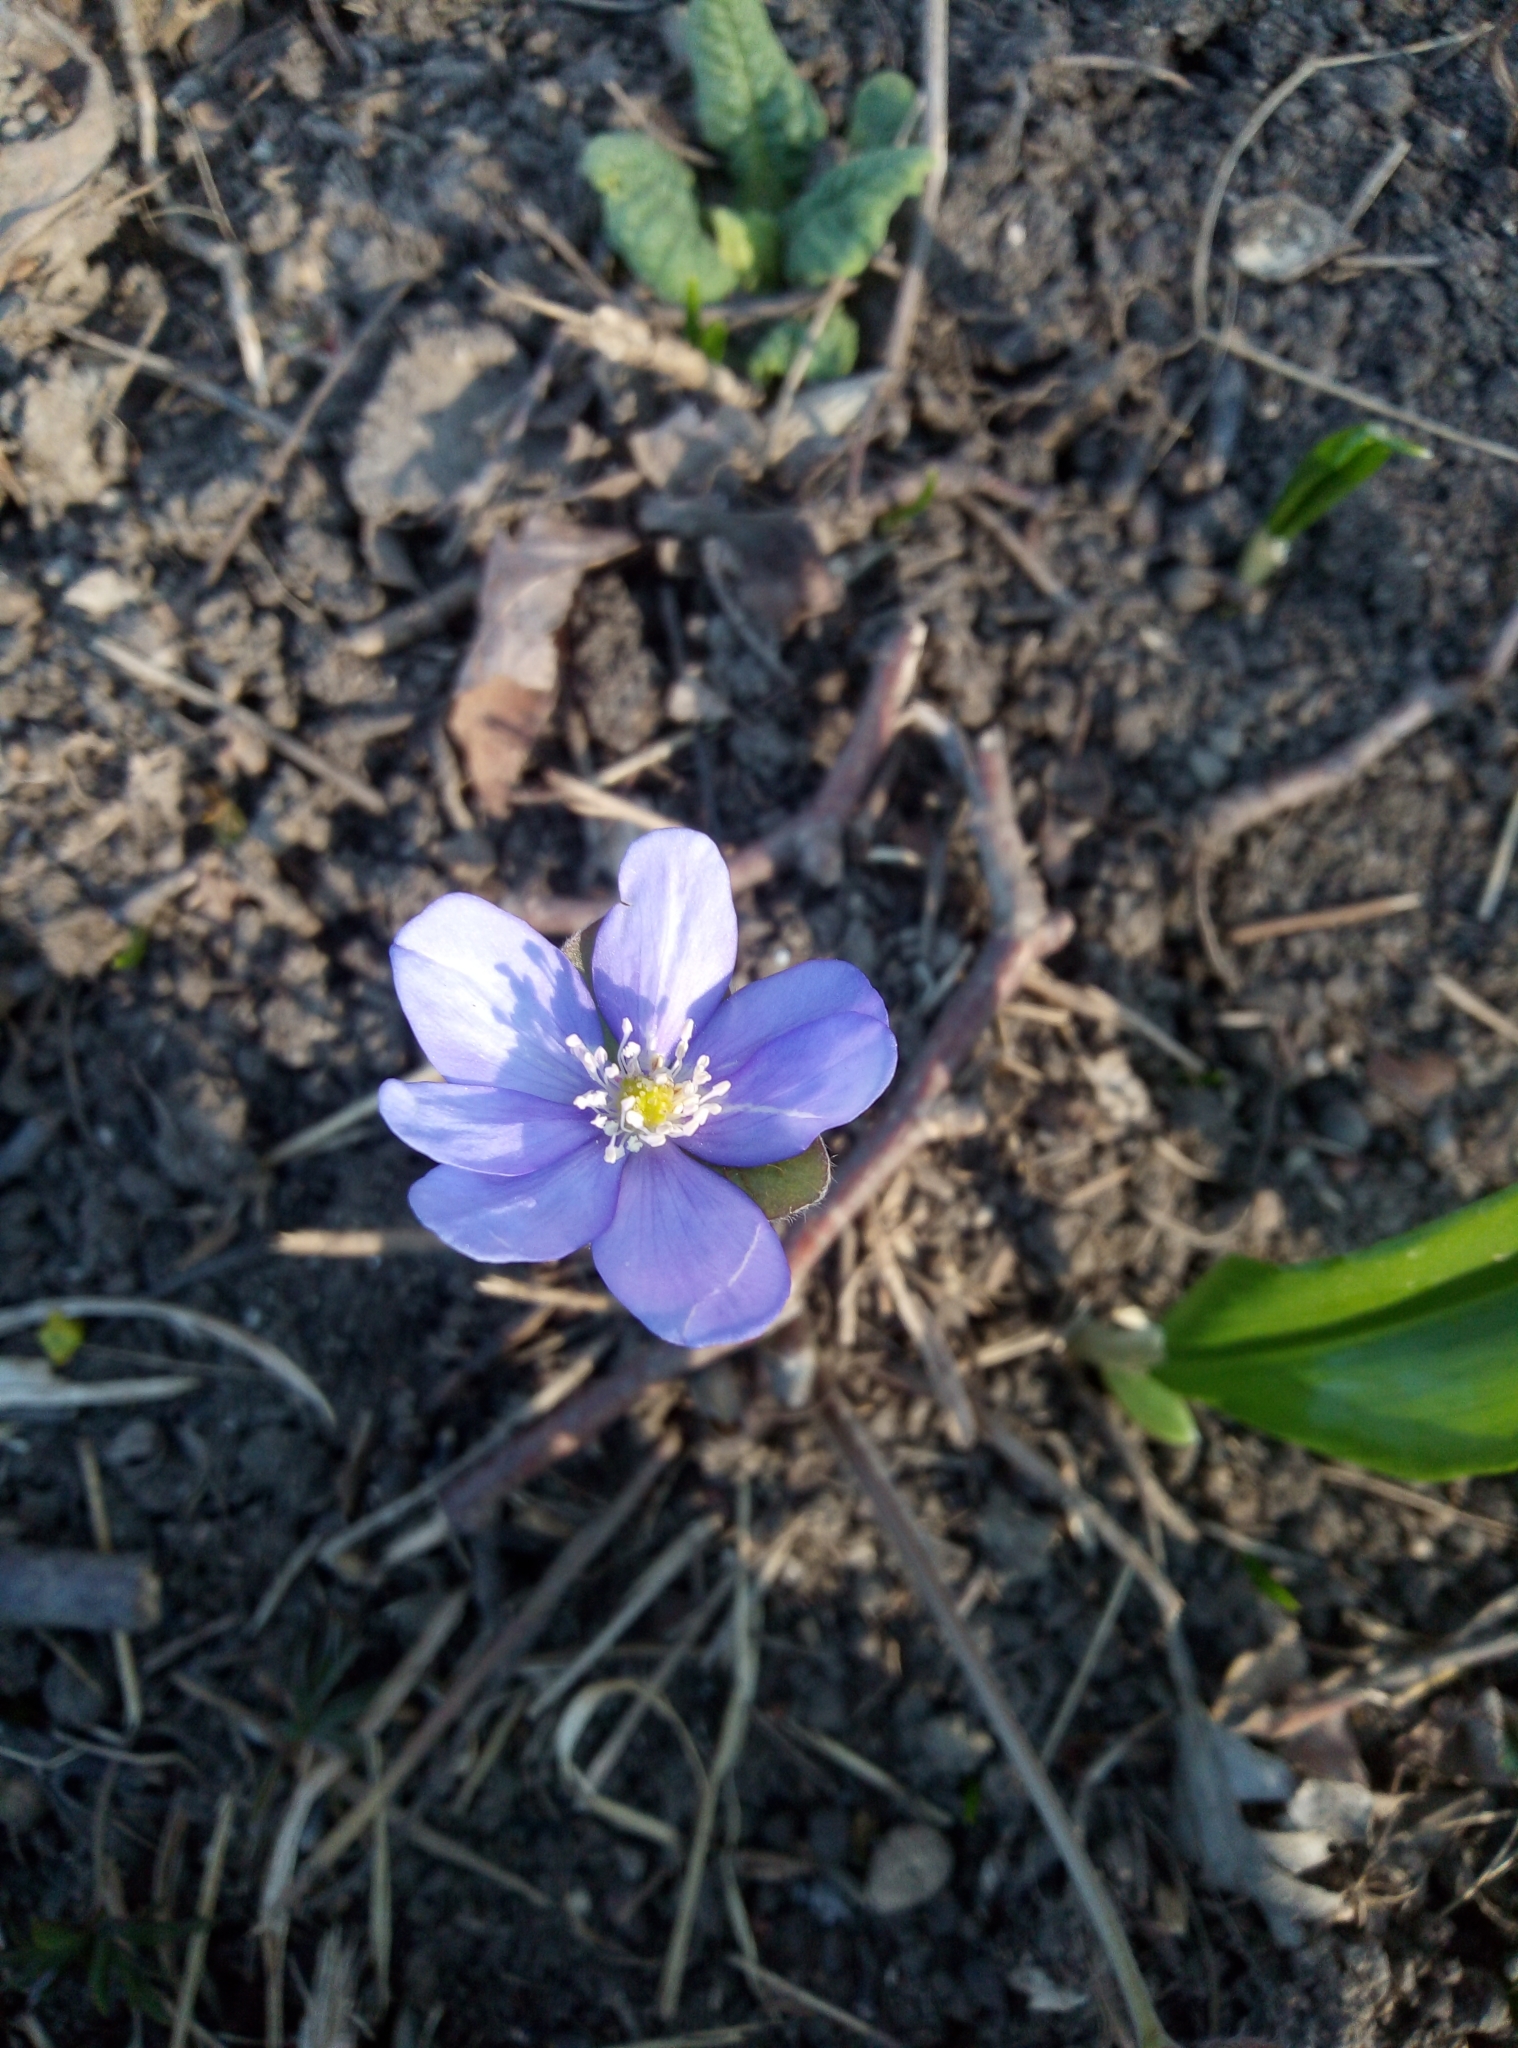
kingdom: Plantae
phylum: Tracheophyta
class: Magnoliopsida
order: Ranunculales
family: Ranunculaceae
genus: Hepatica
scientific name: Hepatica nobilis
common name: Liverleaf
